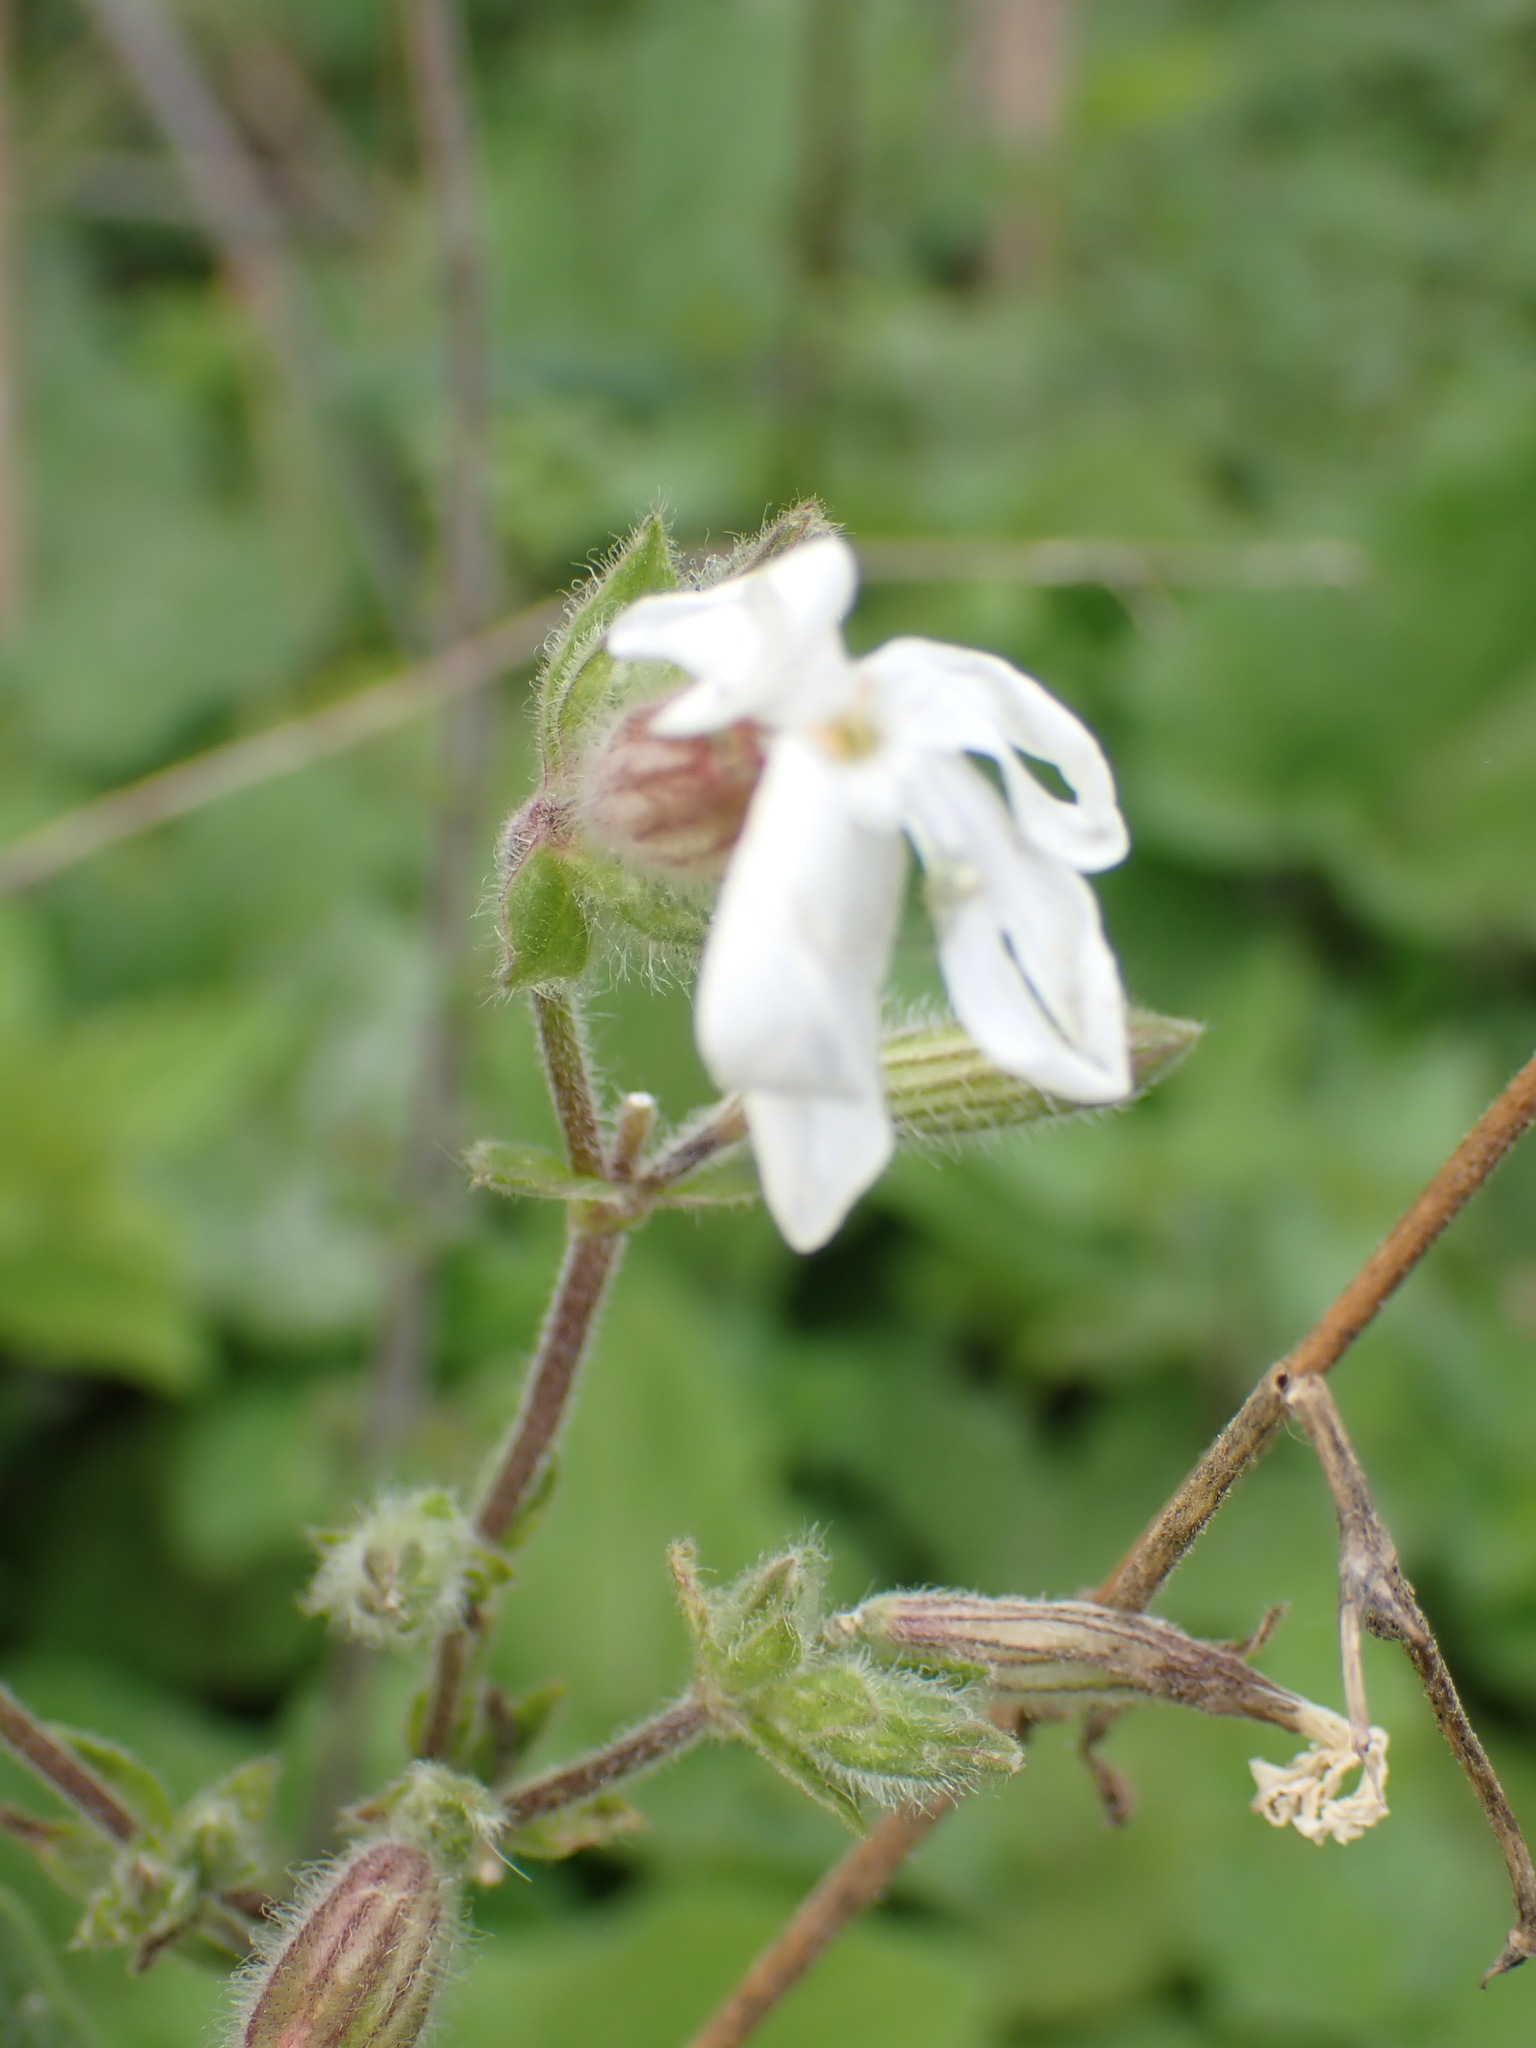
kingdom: Plantae
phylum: Tracheophyta
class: Magnoliopsida
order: Caryophyllales
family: Caryophyllaceae
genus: Silene
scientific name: Silene latifolia
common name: White campion
